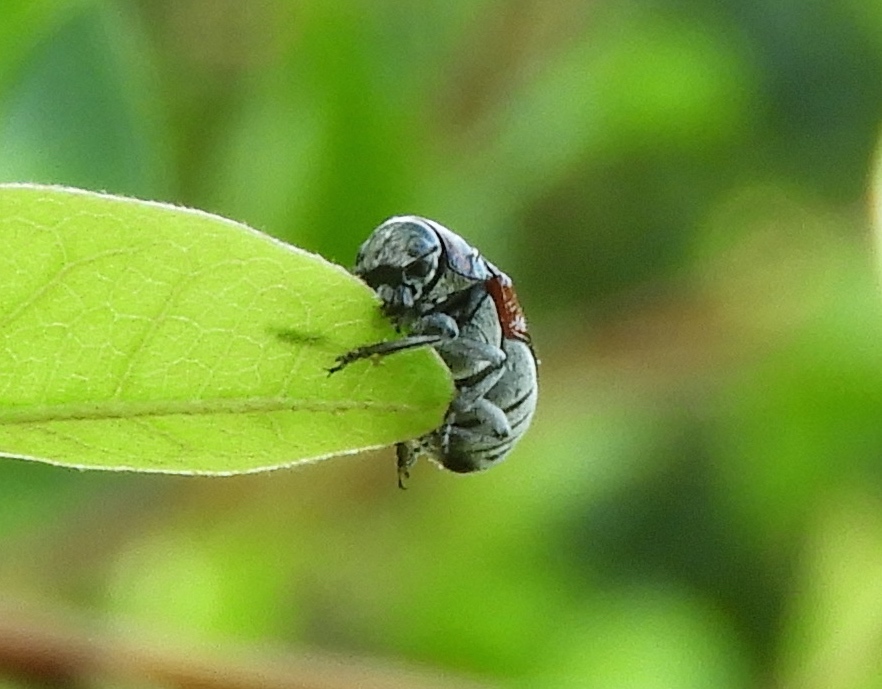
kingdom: Animalia
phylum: Arthropoda
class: Insecta
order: Coleoptera
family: Chrysomelidae
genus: Megalostomis
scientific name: Megalostomis pyropyga
